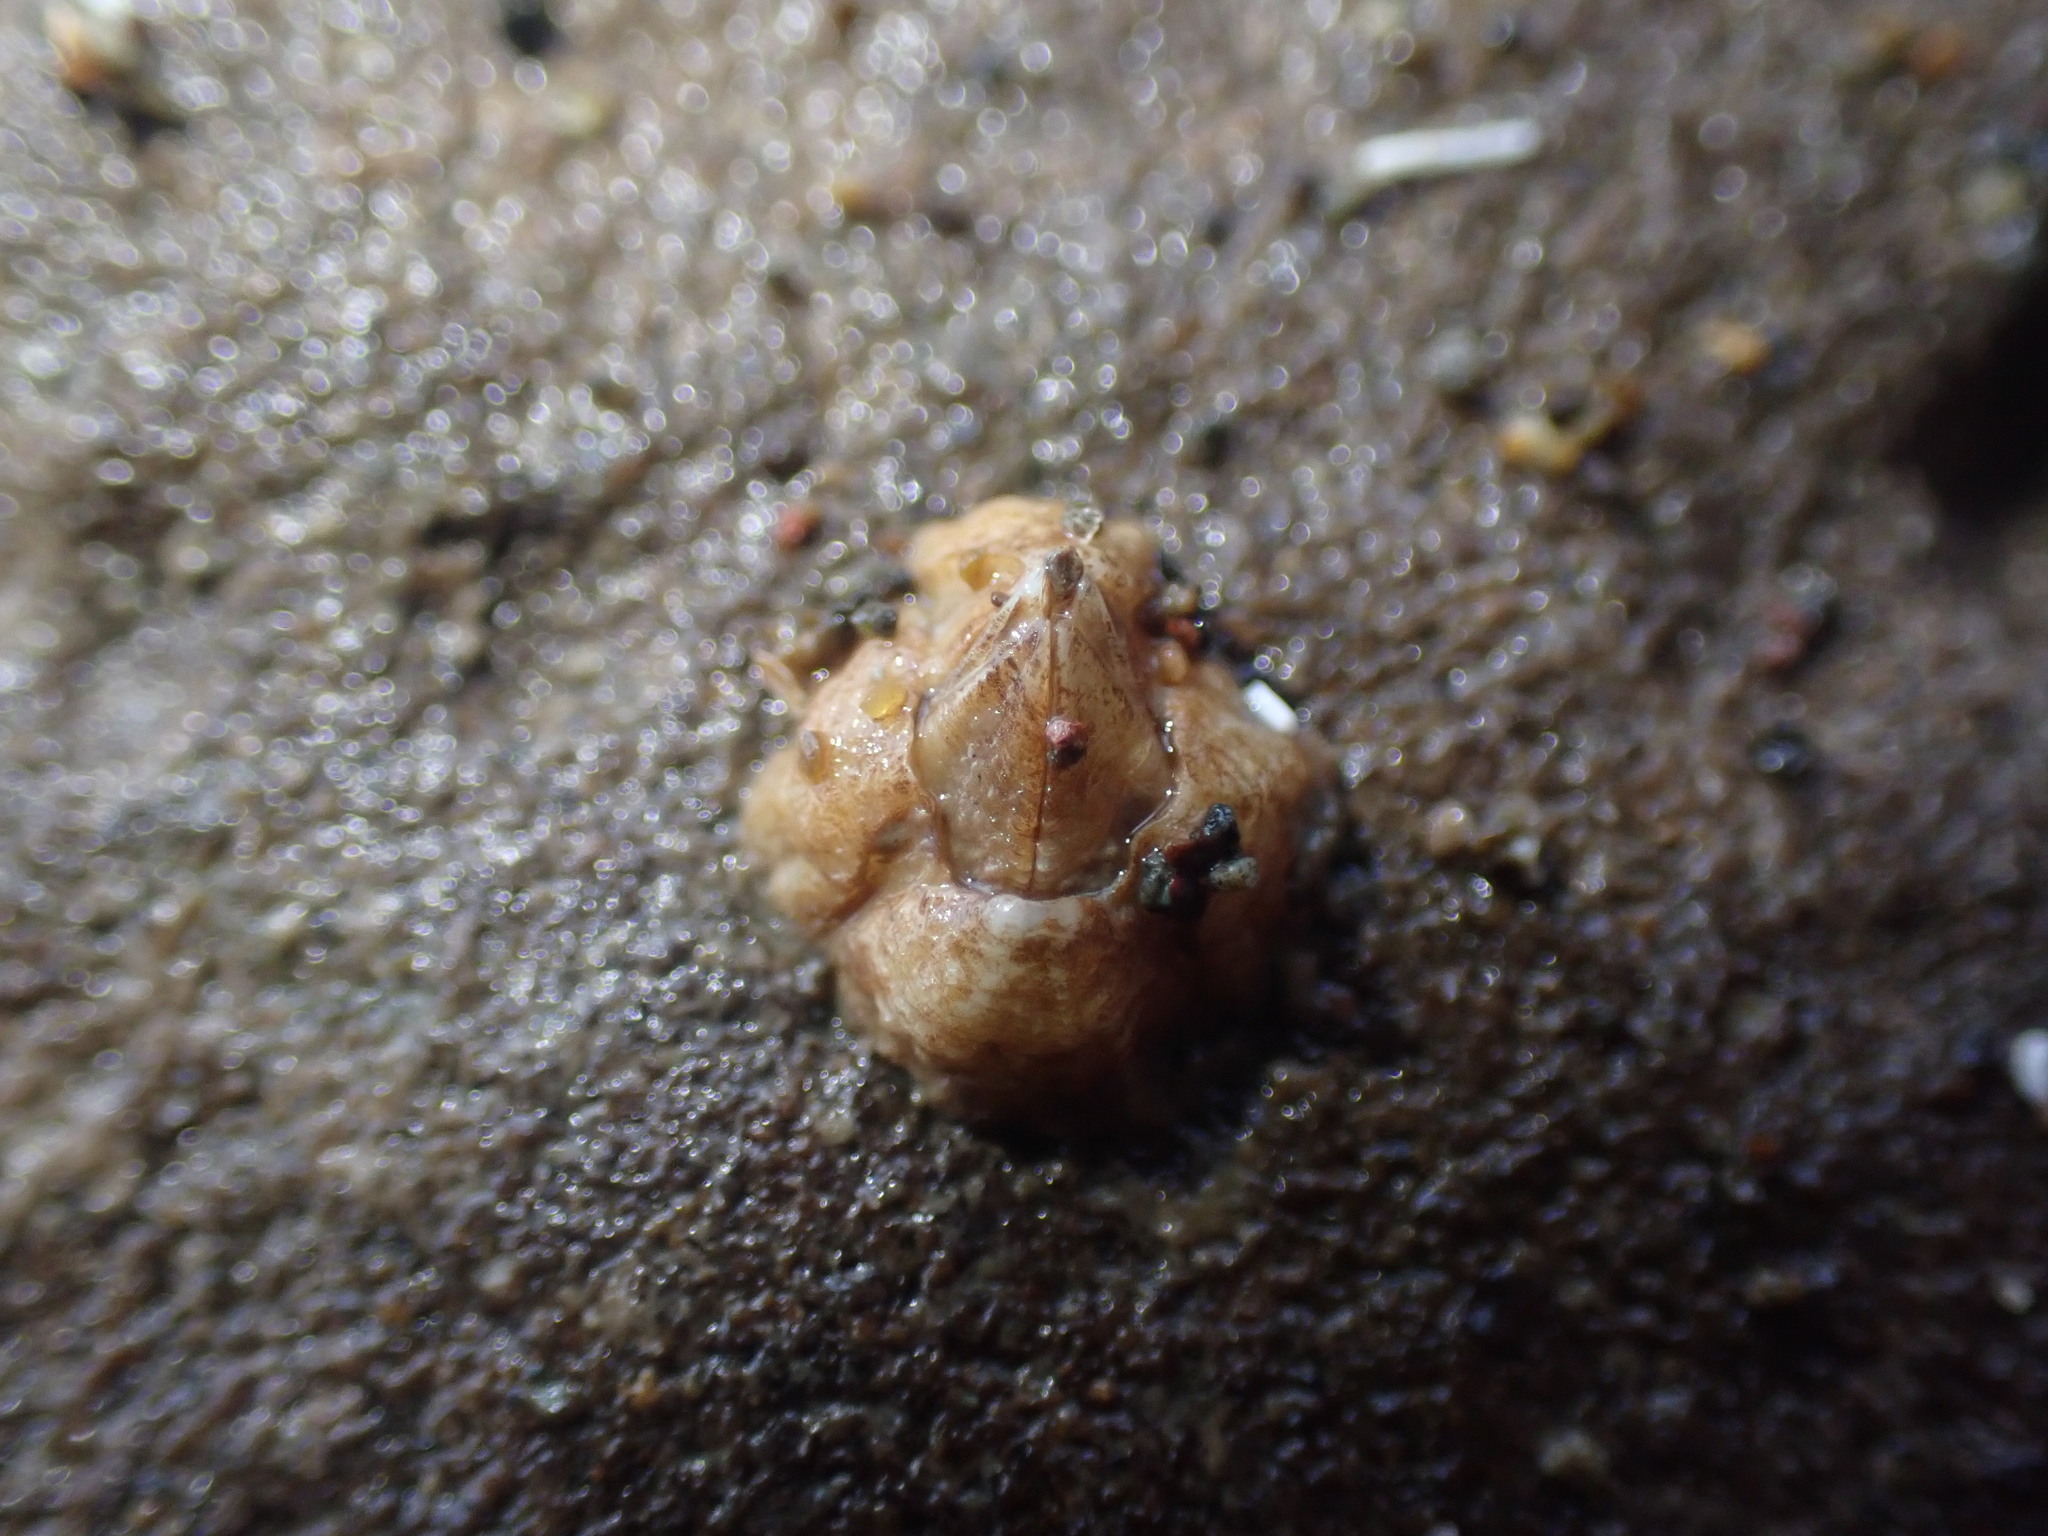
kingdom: Animalia
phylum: Arthropoda
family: Elminiidae
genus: Austrominius
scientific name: Austrominius modestus
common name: Australasian barnacle
